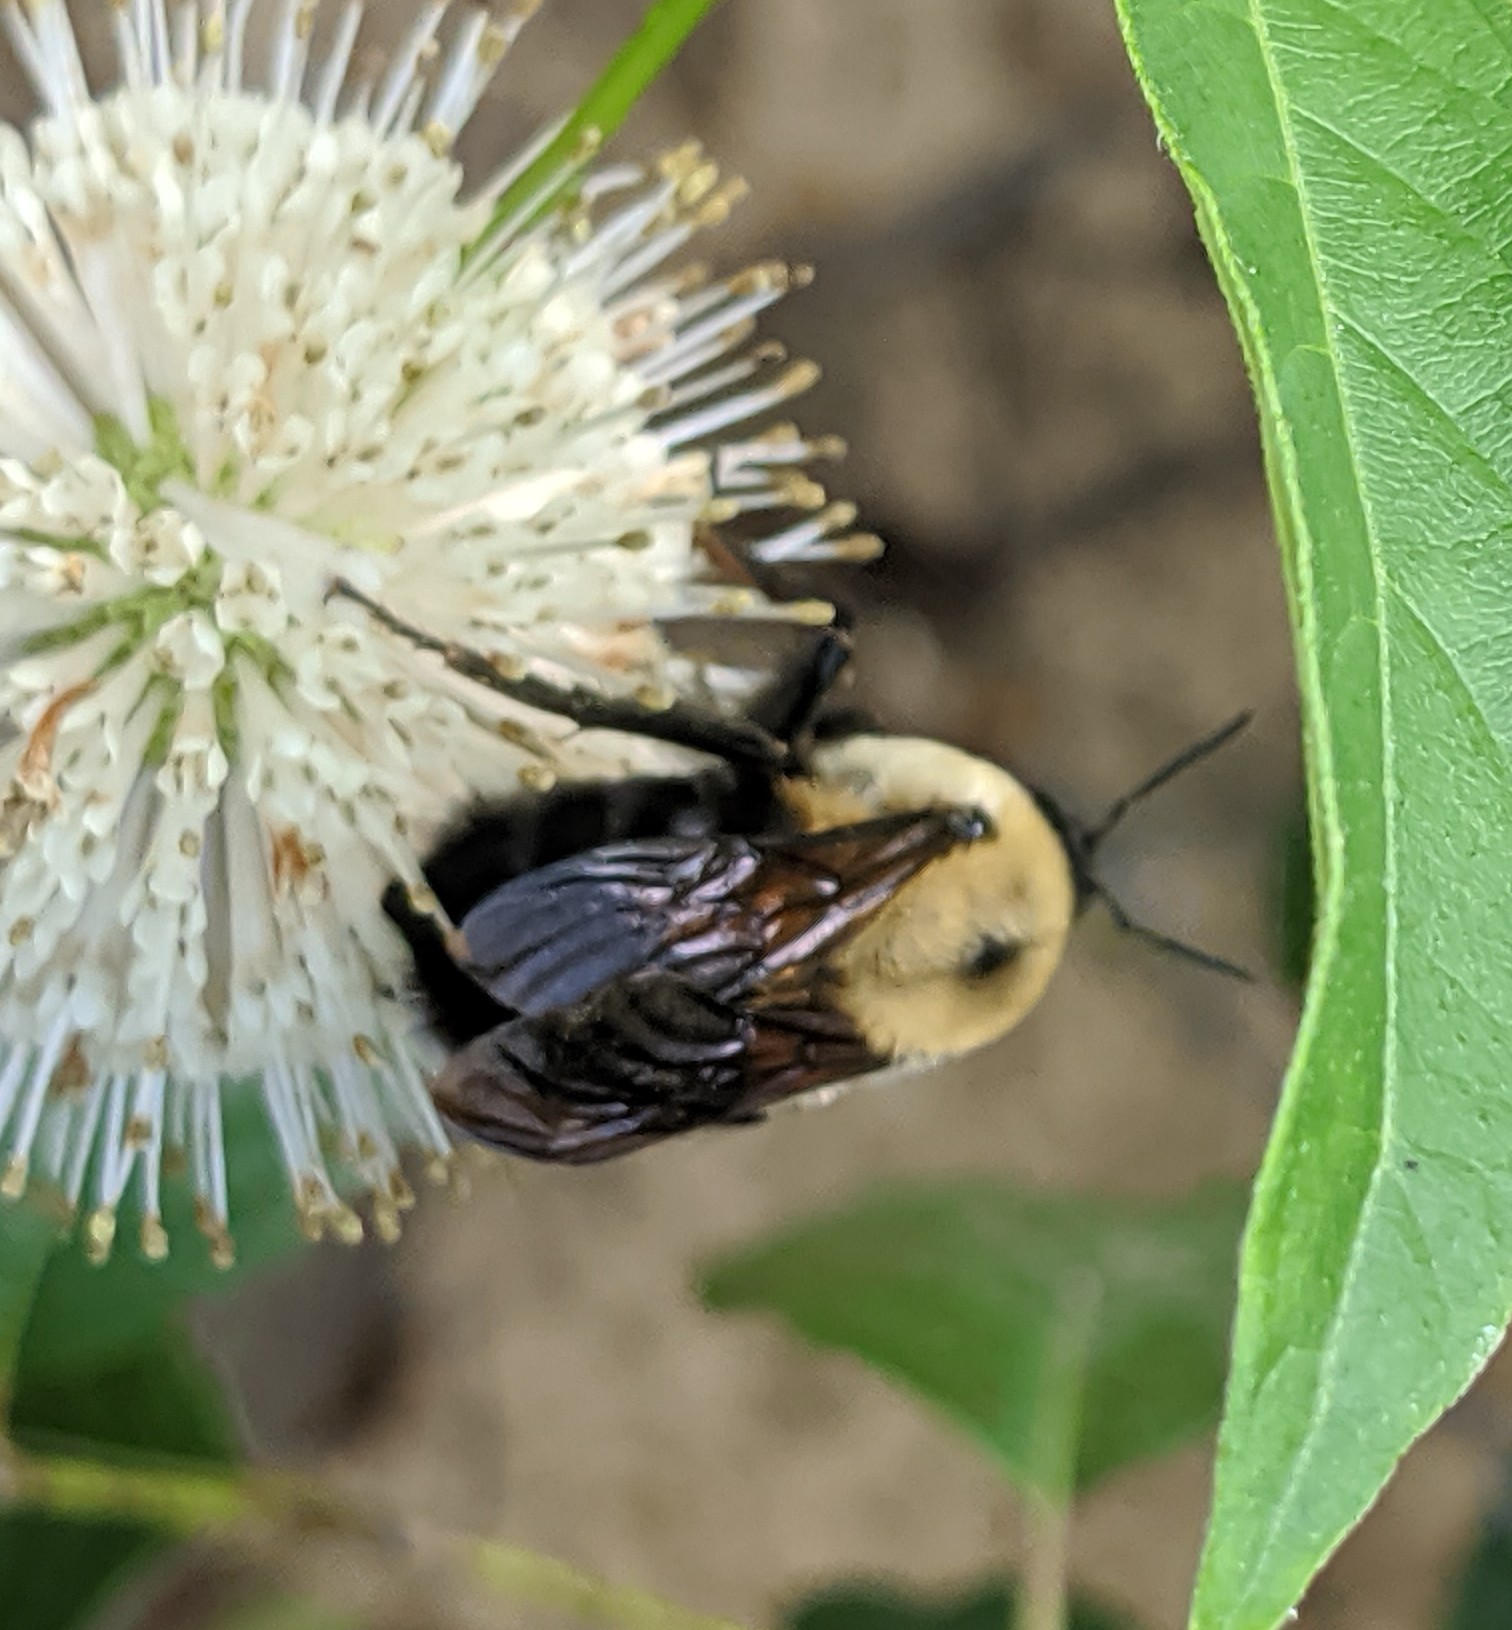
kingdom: Animalia
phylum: Arthropoda
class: Insecta
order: Hymenoptera
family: Apidae
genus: Bombus
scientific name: Bombus griseocollis
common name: Brown-belted bumble bee
